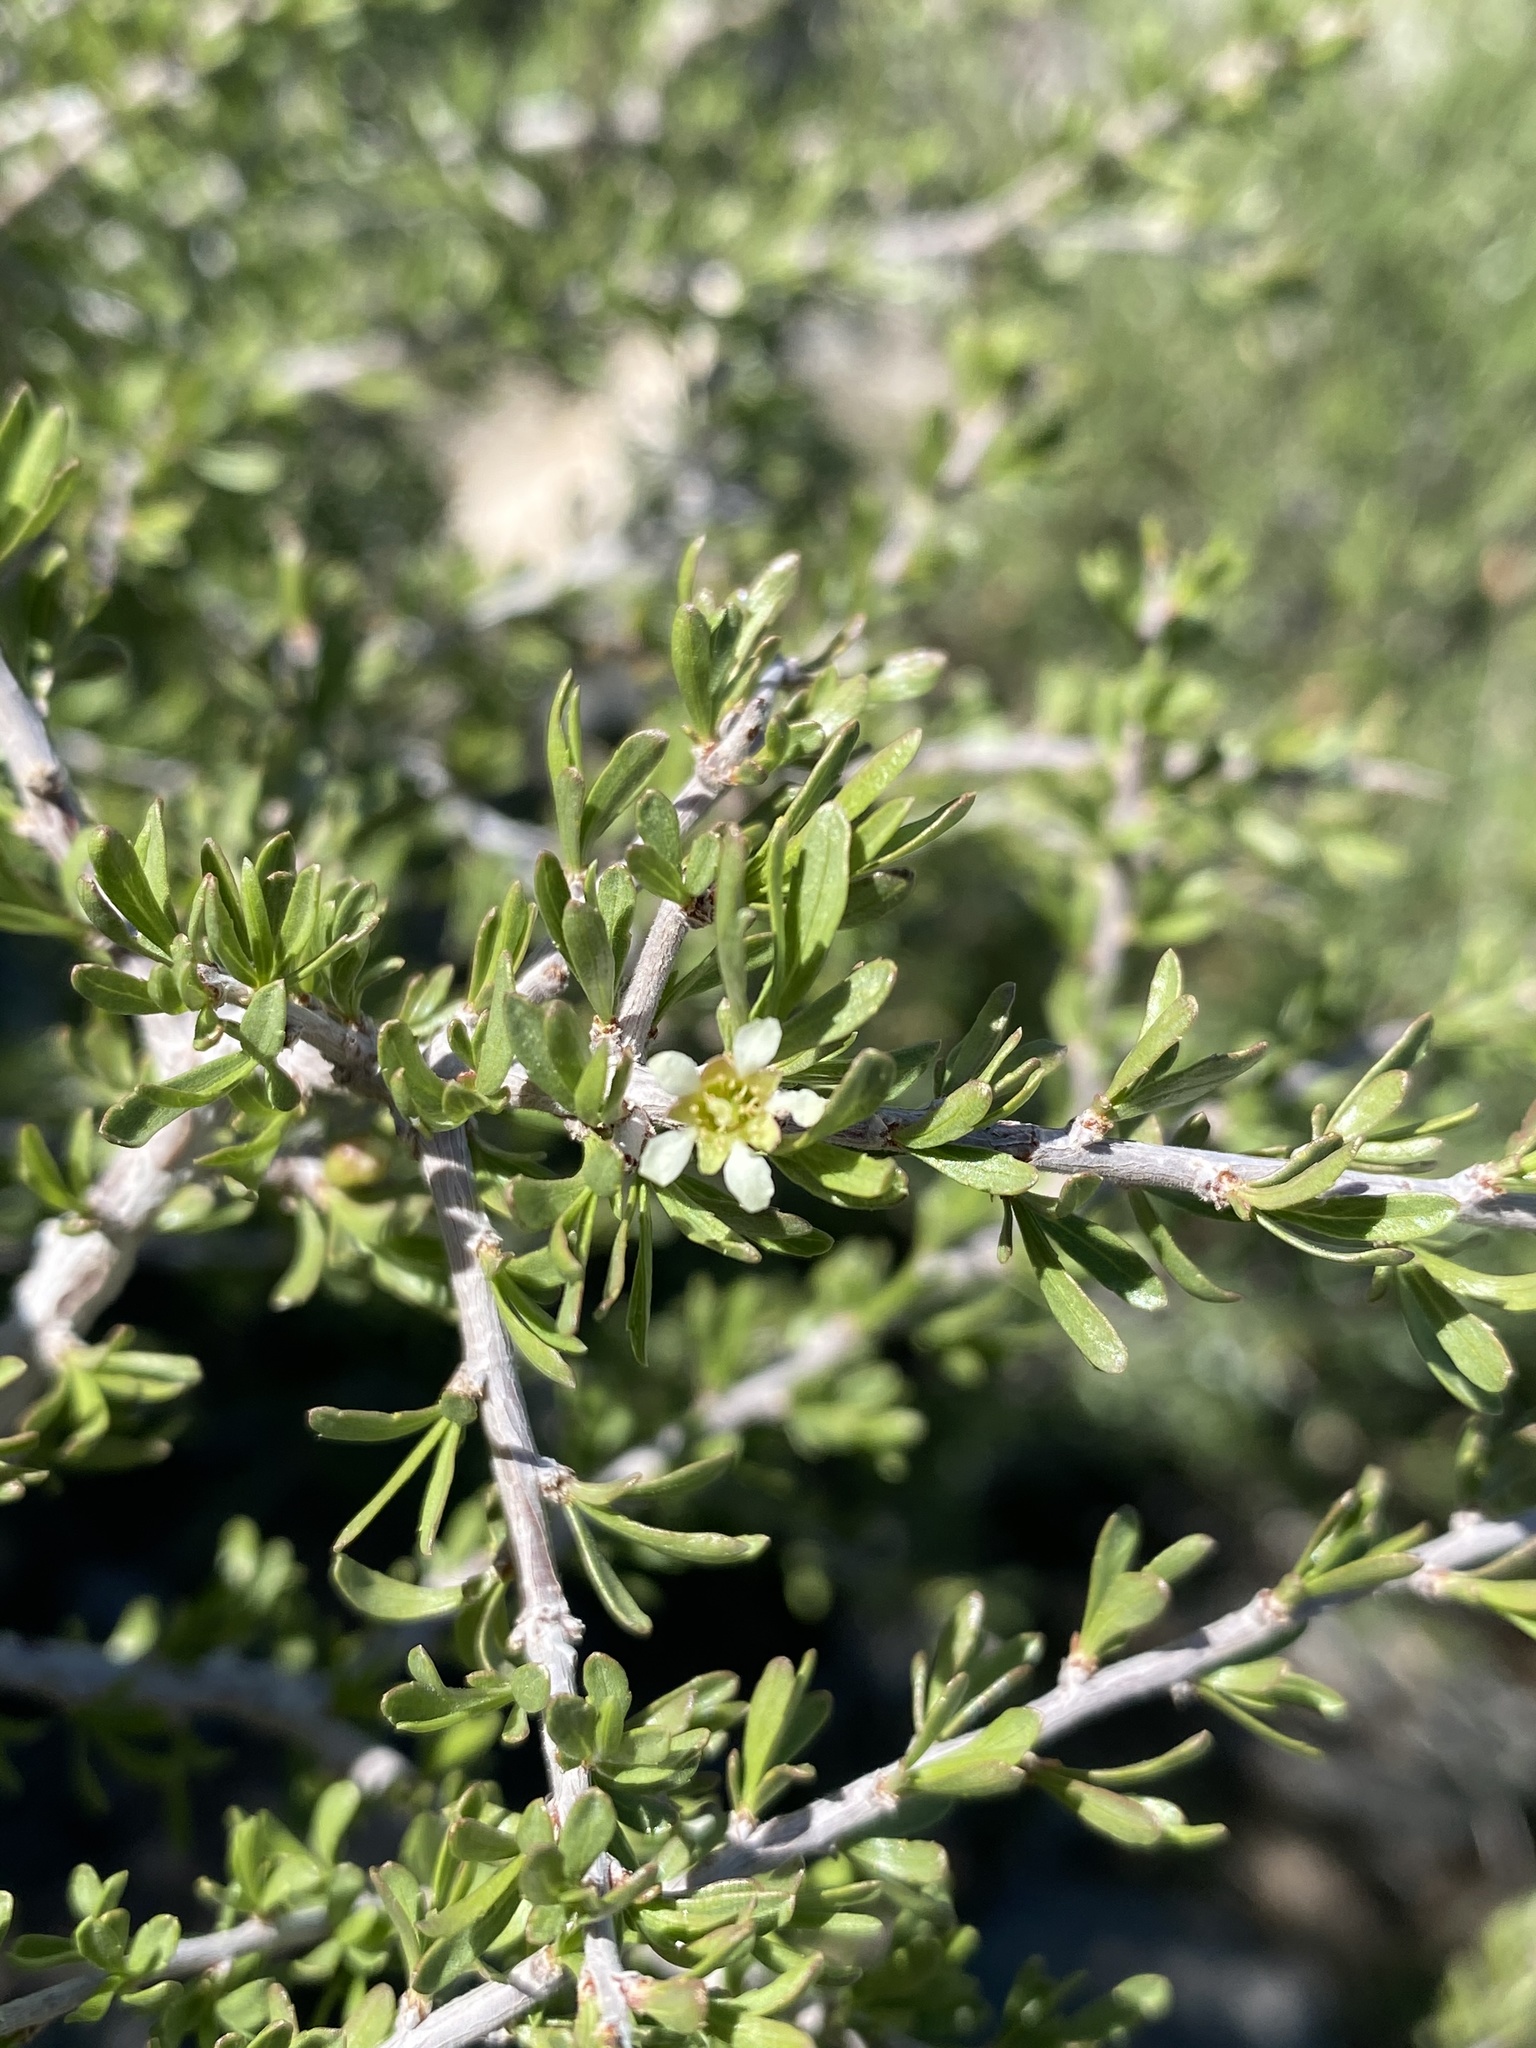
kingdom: Plantae
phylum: Tracheophyta
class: Magnoliopsida
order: Rosales
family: Rosaceae
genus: Prunus
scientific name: Prunus fasciculata
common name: Desert almond
